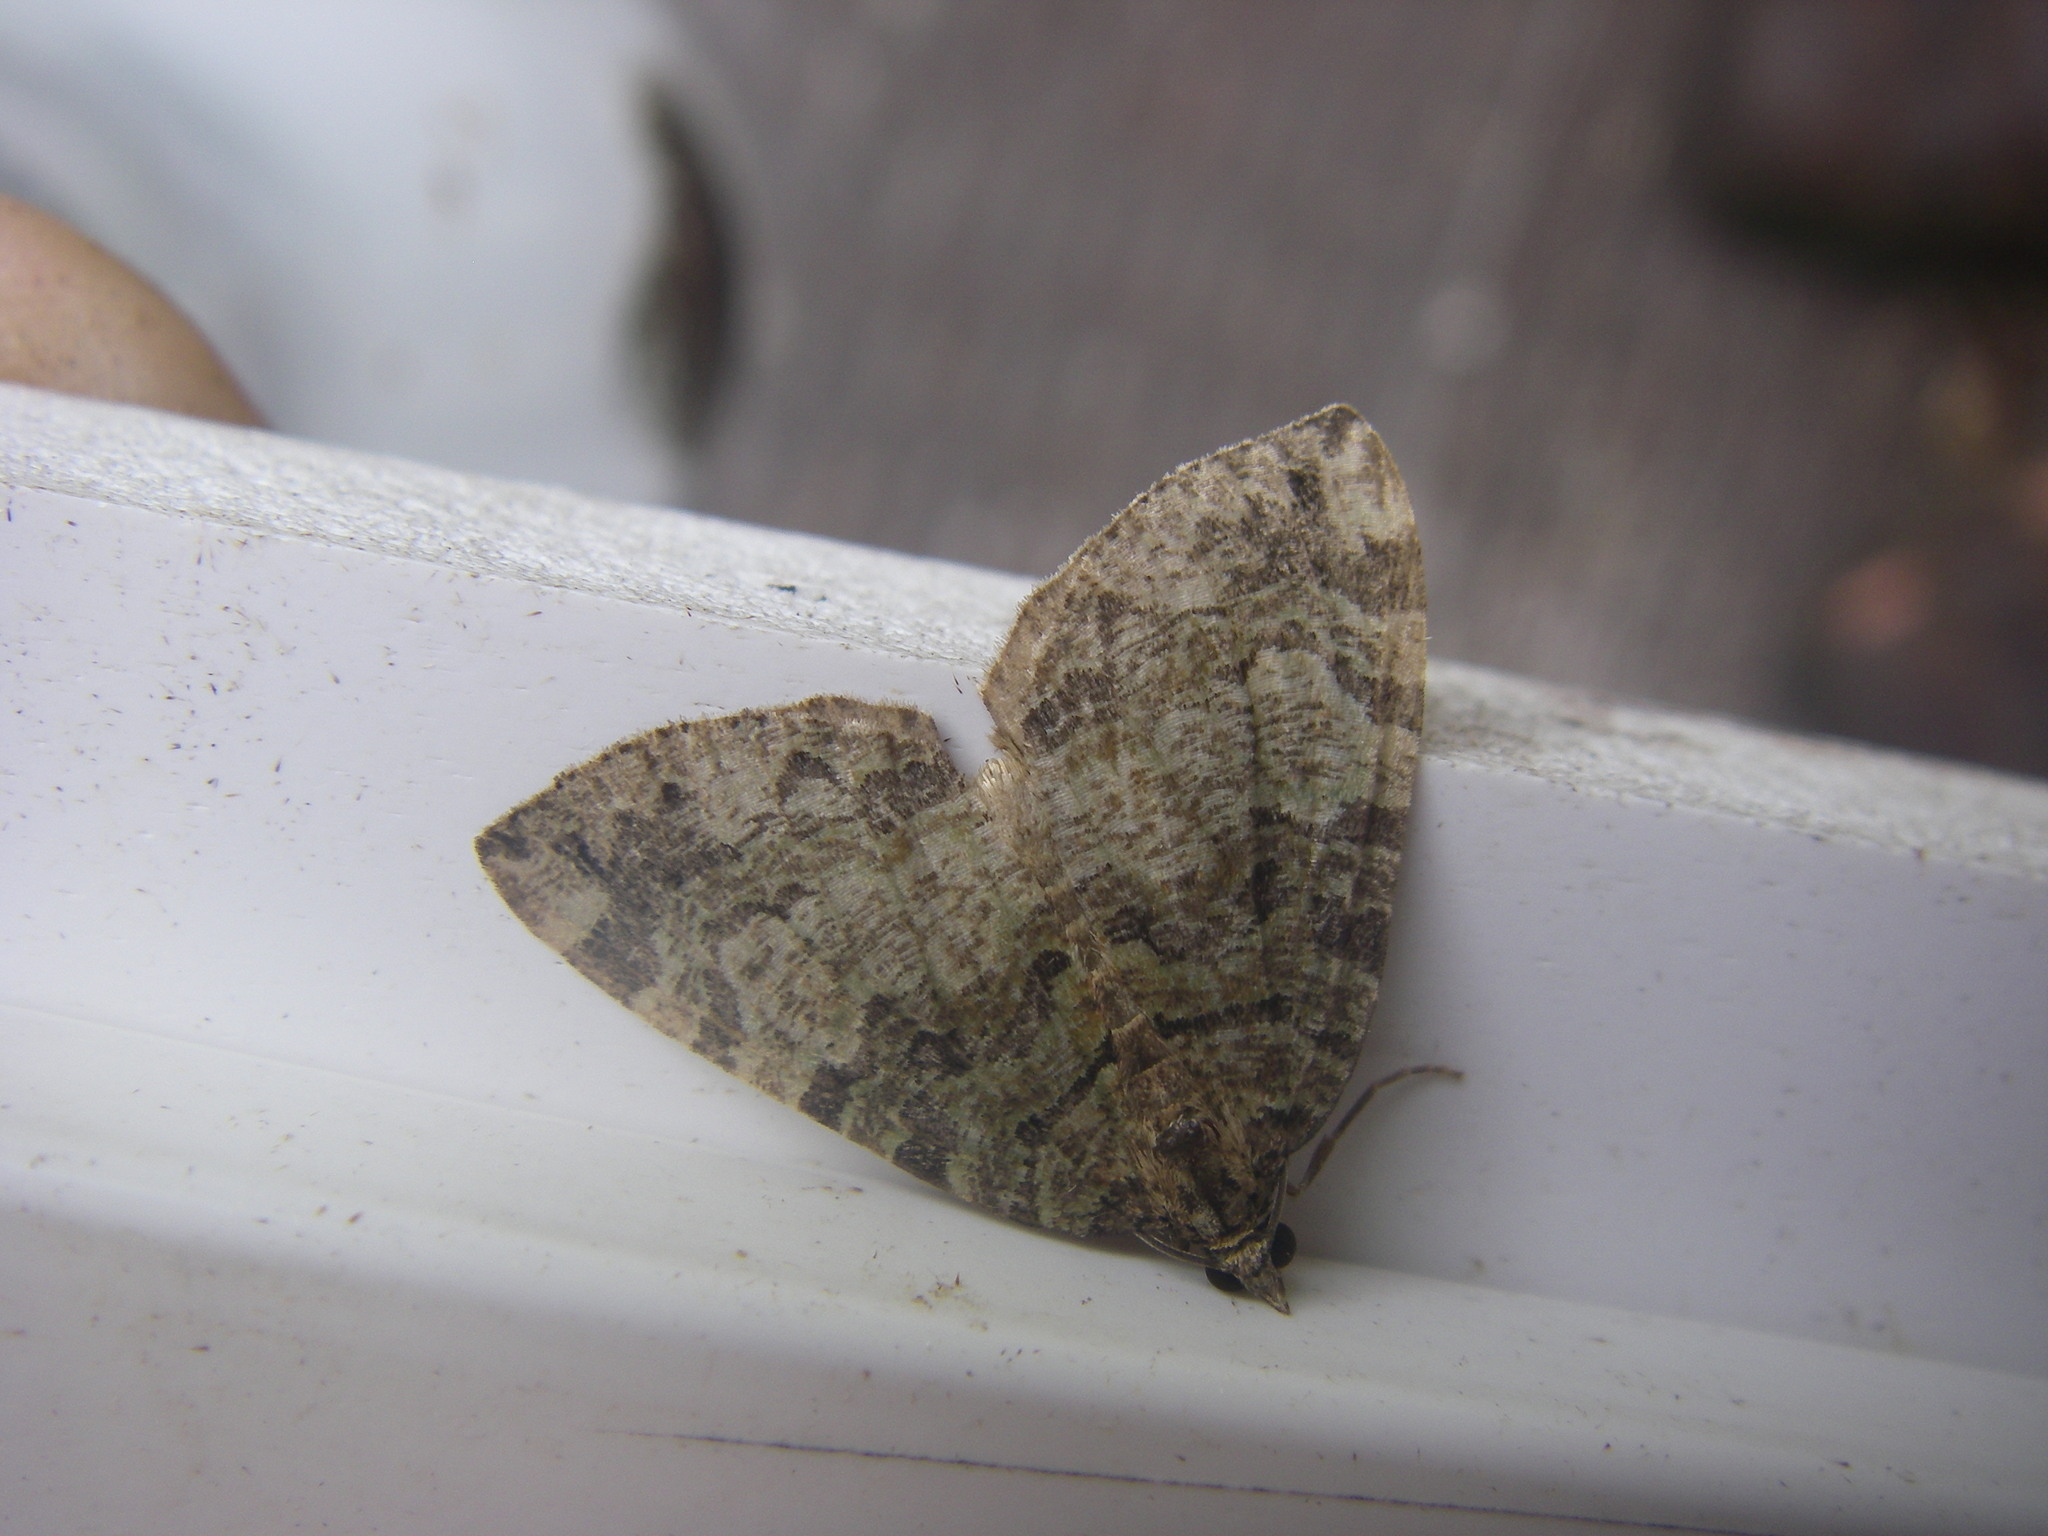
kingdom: Animalia
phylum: Arthropoda
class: Insecta
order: Lepidoptera
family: Geometridae
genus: Hydriomena
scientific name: Hydriomena furcata
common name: July highflyer
